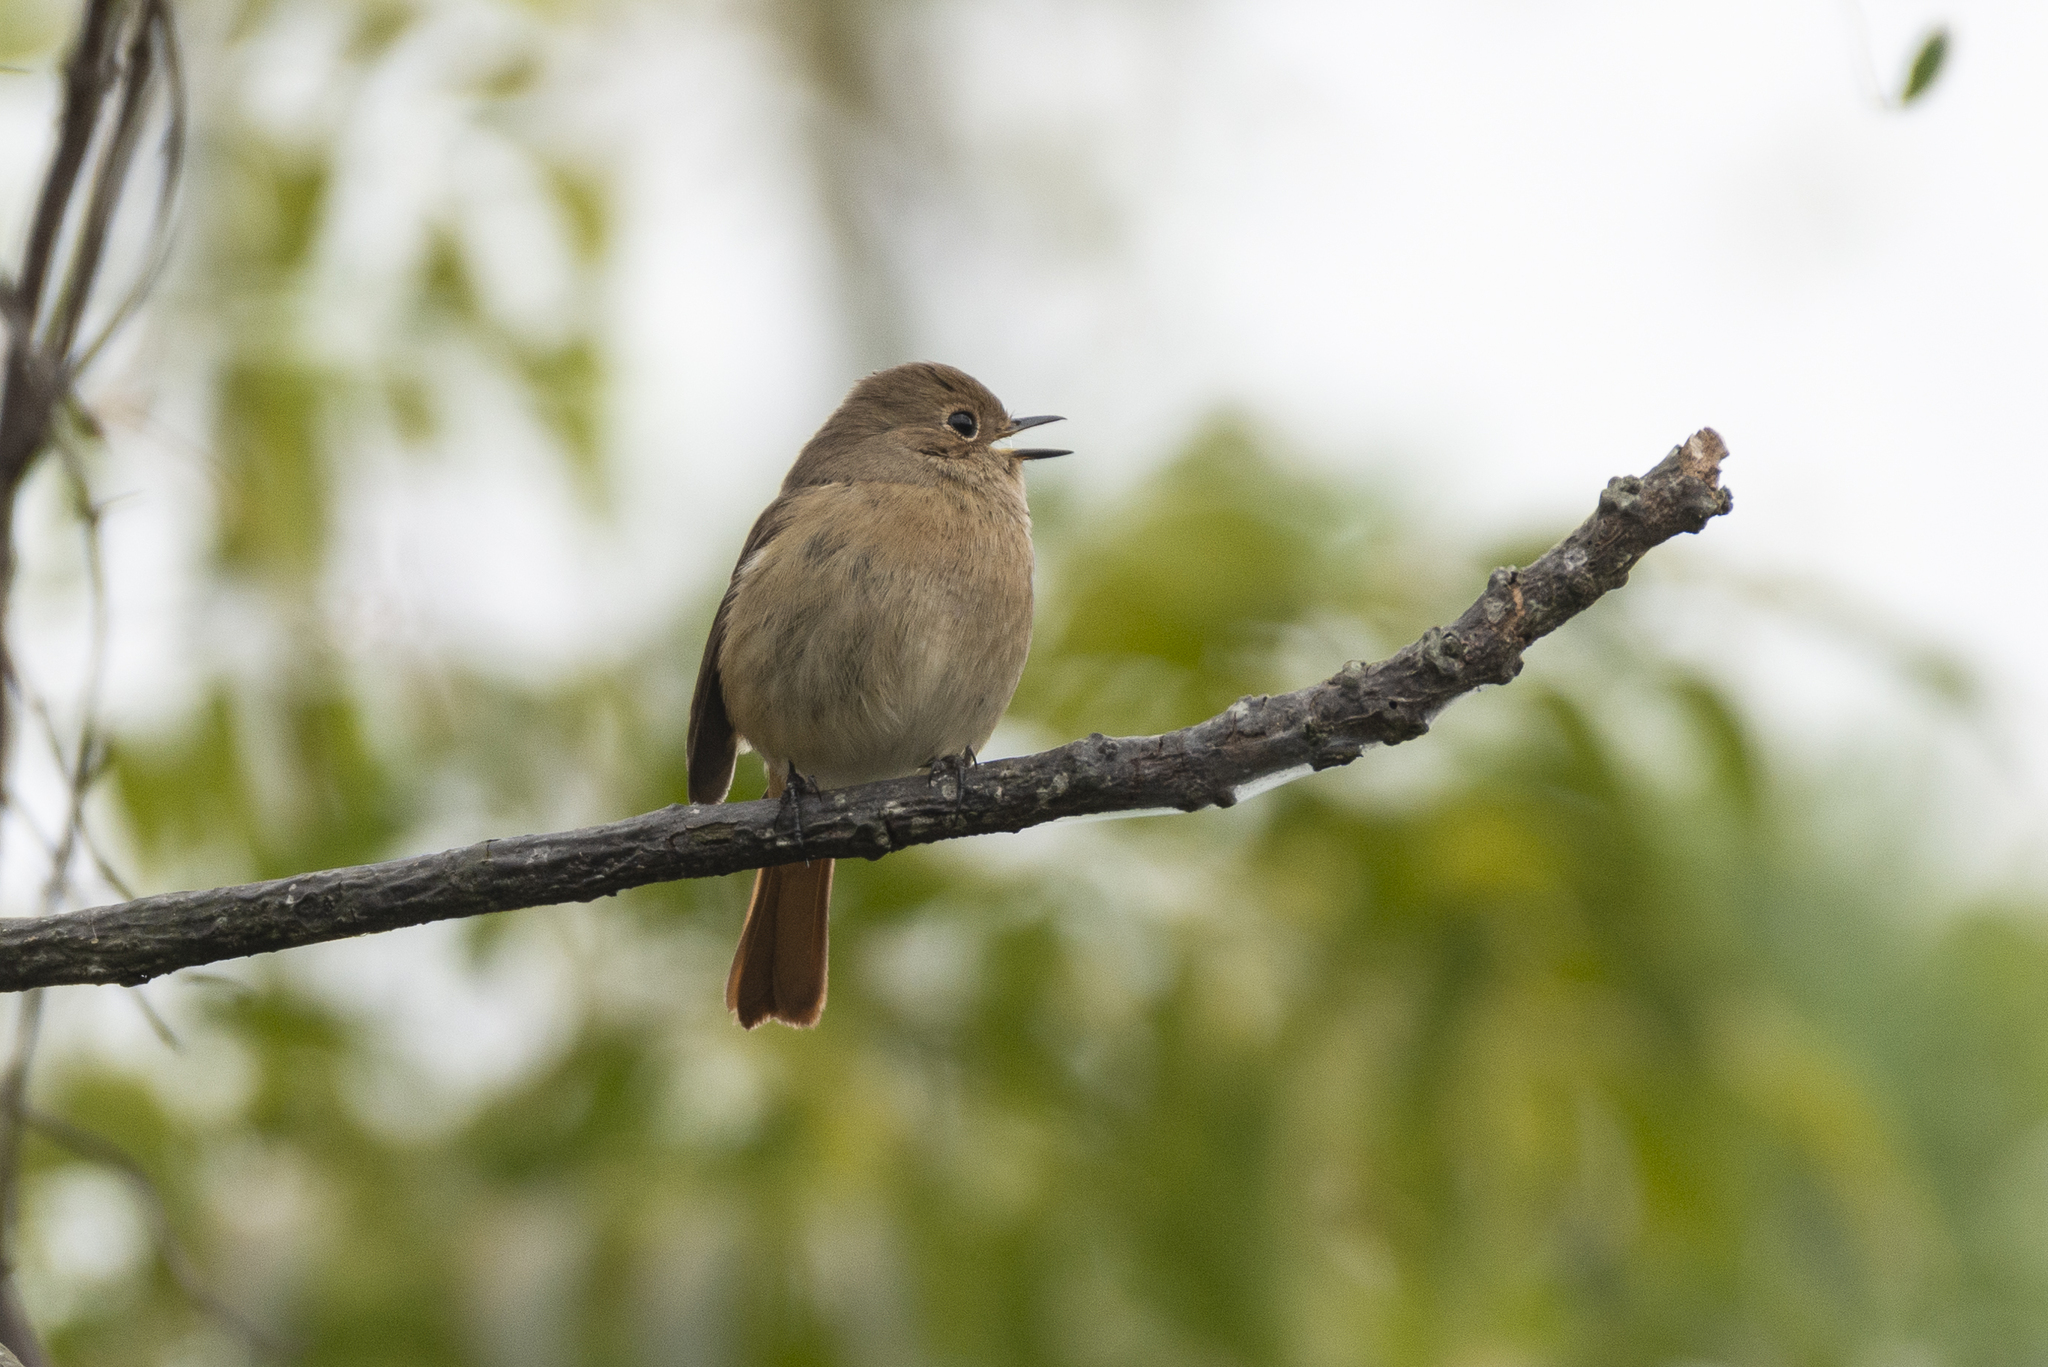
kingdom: Animalia
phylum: Chordata
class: Aves
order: Passeriformes
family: Muscicapidae
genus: Phoenicurus
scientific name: Phoenicurus auroreus
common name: Daurian redstart
